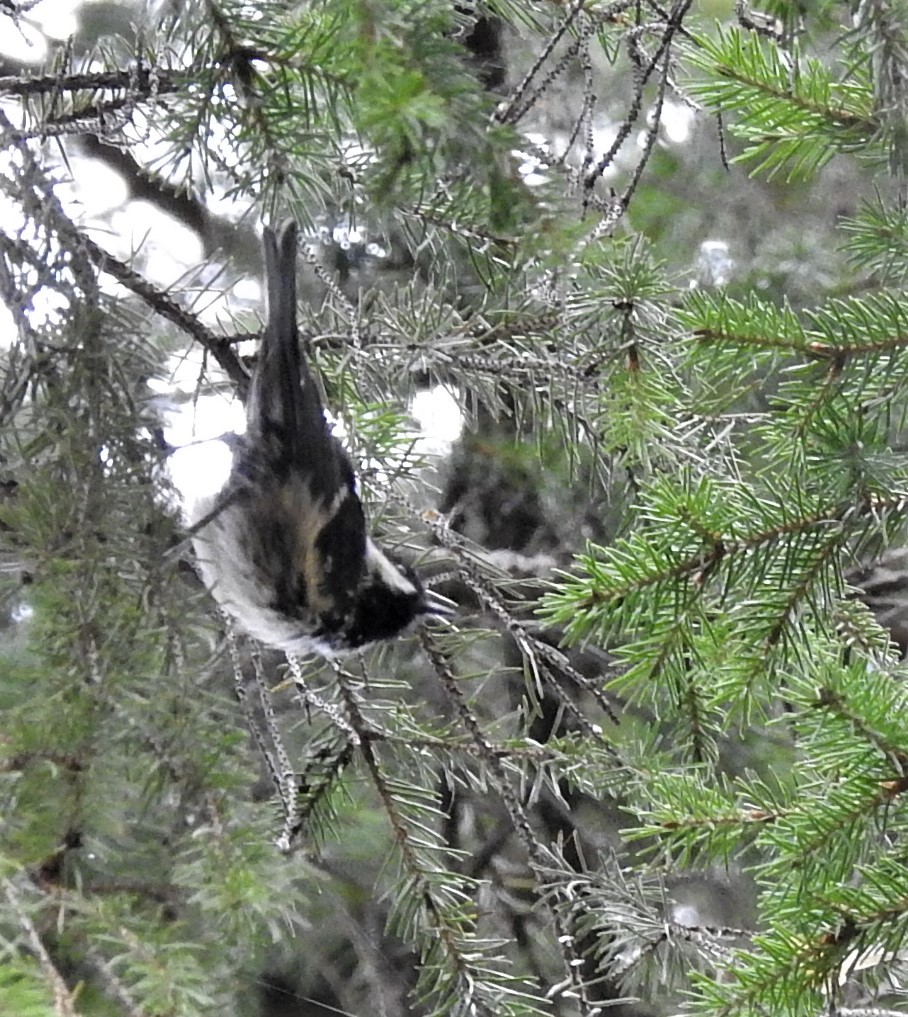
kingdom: Animalia
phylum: Chordata
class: Aves
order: Passeriformes
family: Paridae
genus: Periparus
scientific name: Periparus ater
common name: Coal tit
